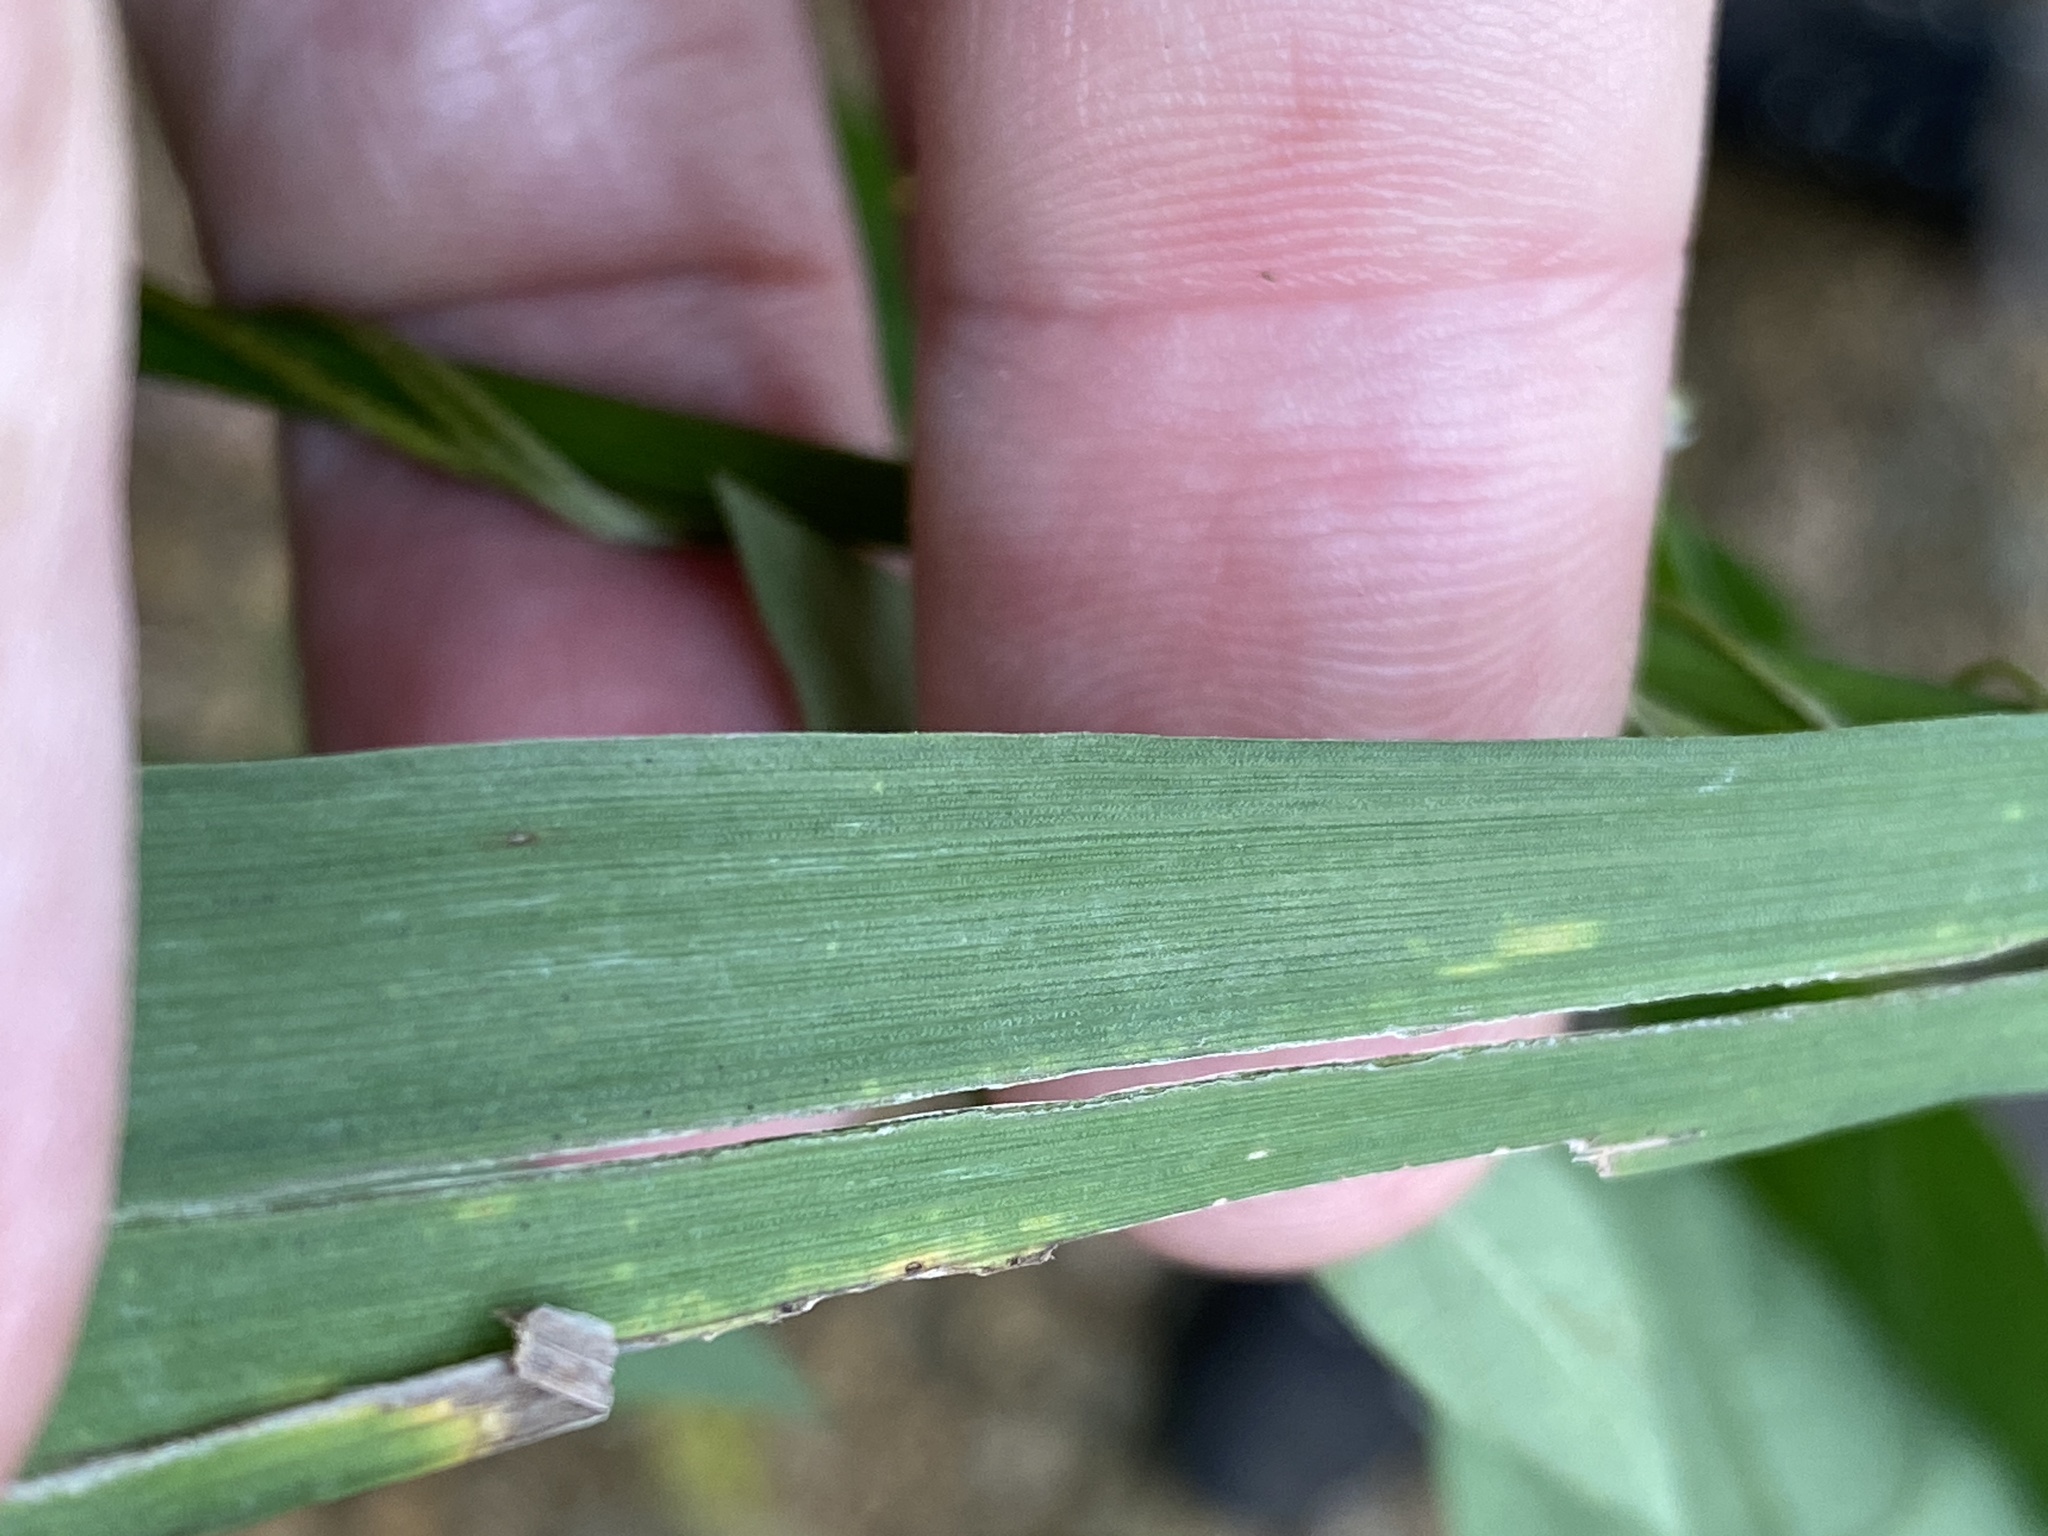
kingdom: Plantae
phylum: Tracheophyta
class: Liliopsida
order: Poales
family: Poaceae
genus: Bromus
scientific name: Bromus nottowayanus
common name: Nottoway valley brome
